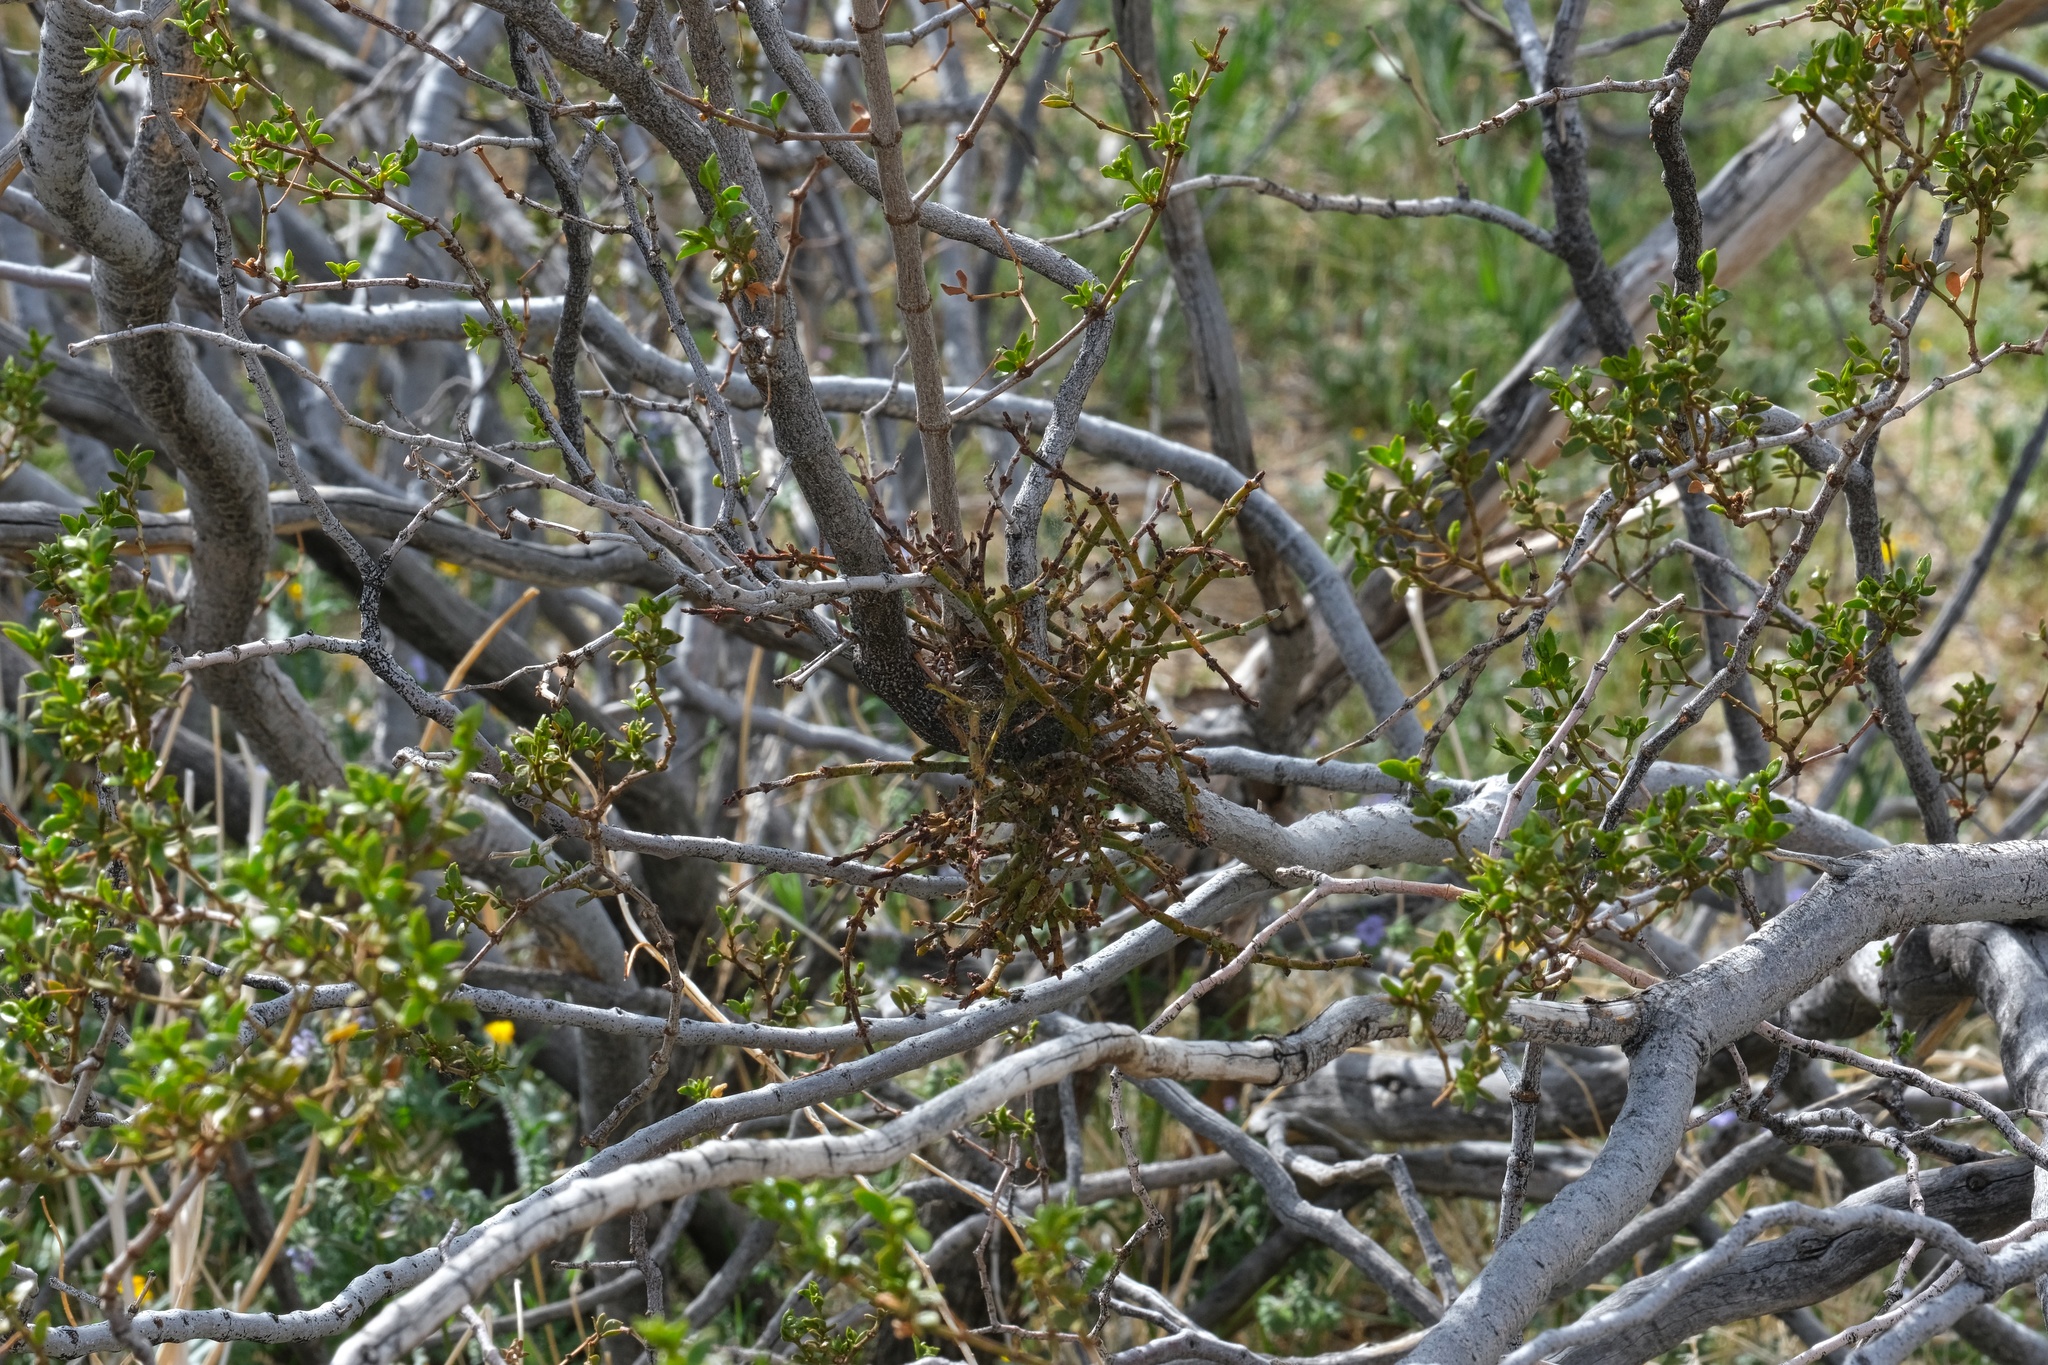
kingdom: Plantae
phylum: Tracheophyta
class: Magnoliopsida
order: Santalales
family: Viscaceae
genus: Phoradendron
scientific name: Phoradendron californicum
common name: Acacia mistletoe
